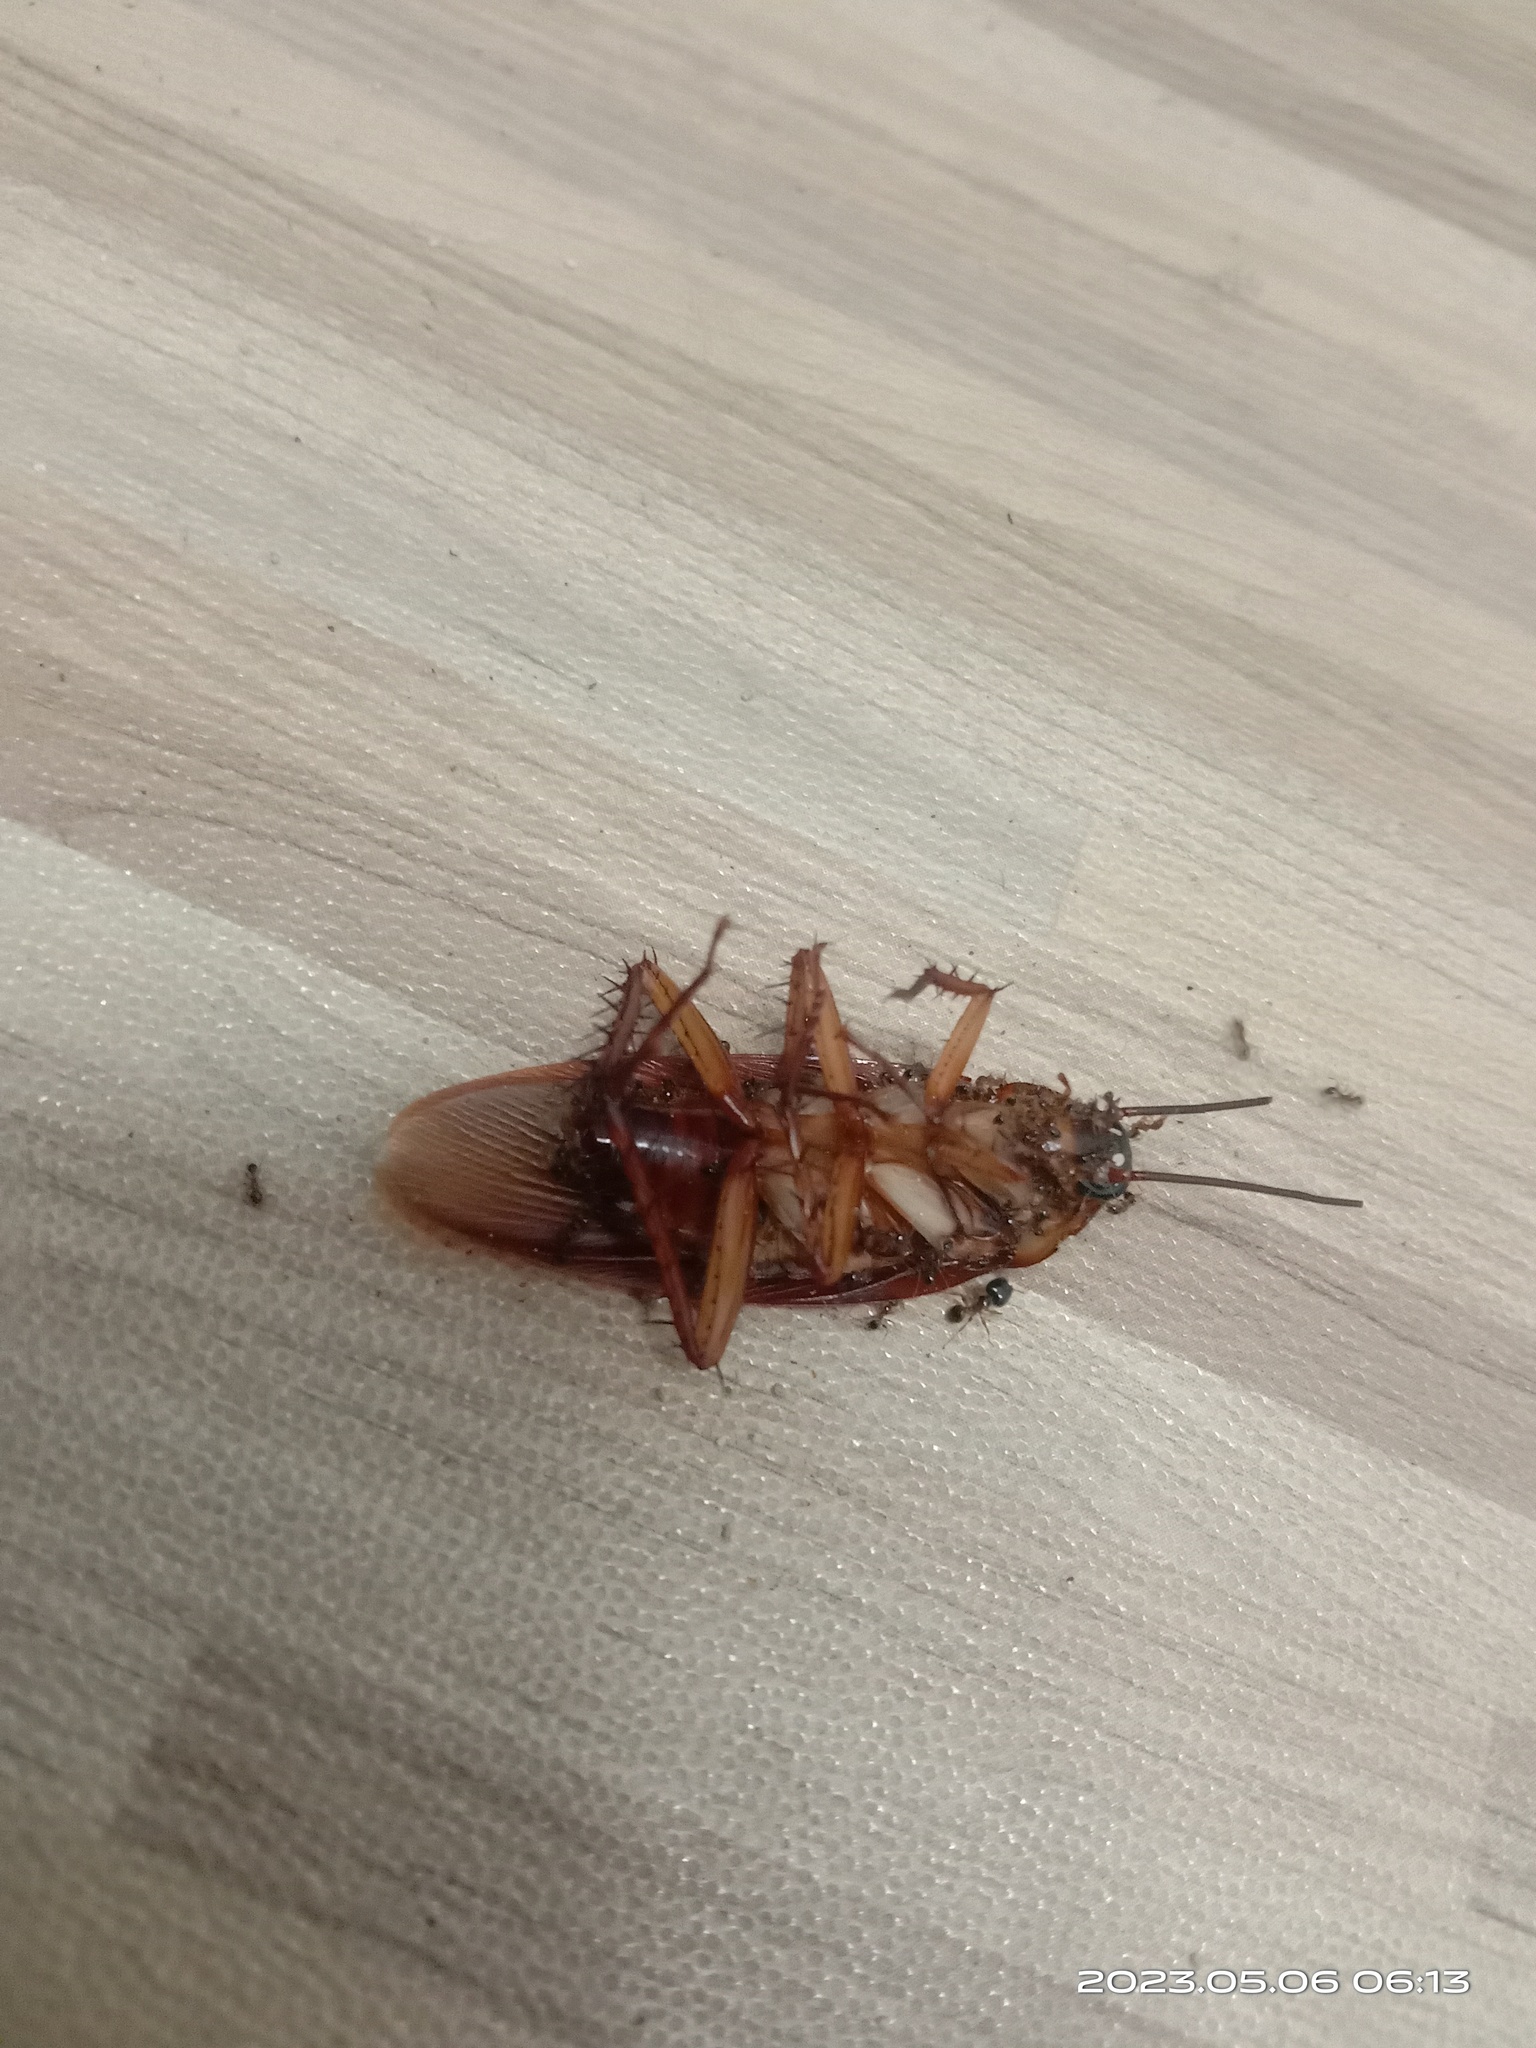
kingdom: Animalia
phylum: Arthropoda
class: Insecta
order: Blattodea
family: Blattidae
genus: Periplaneta
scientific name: Periplaneta americana
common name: American cockroach
